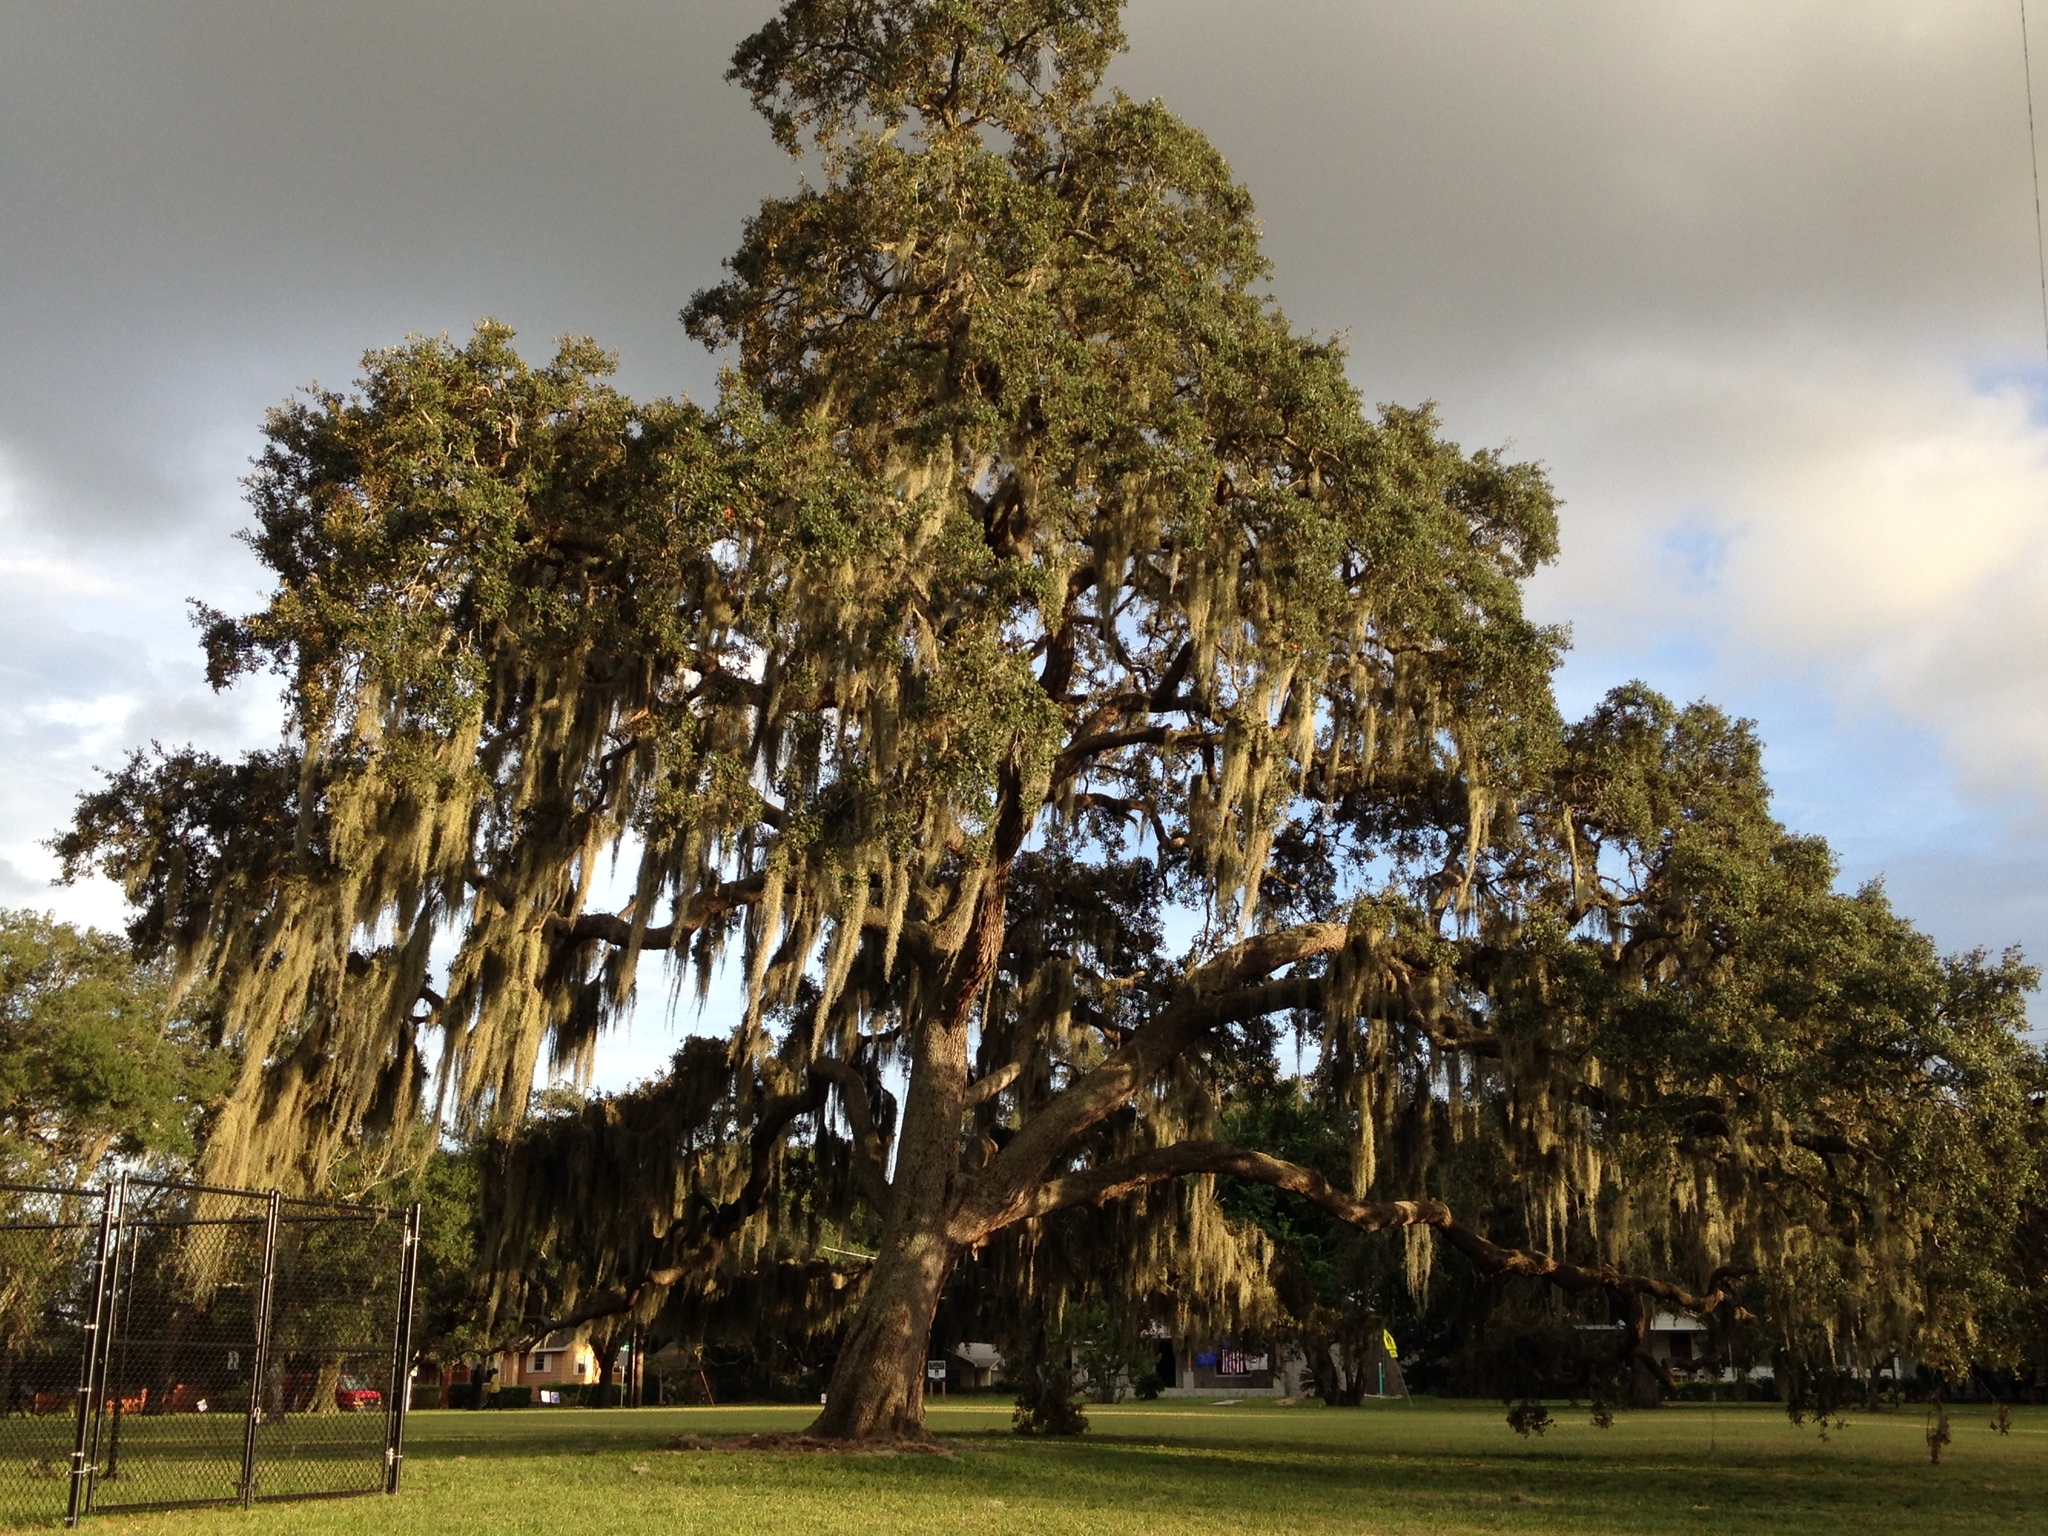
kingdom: Plantae
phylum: Tracheophyta
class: Liliopsida
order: Poales
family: Bromeliaceae
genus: Tillandsia
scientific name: Tillandsia usneoides
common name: Spanish moss
